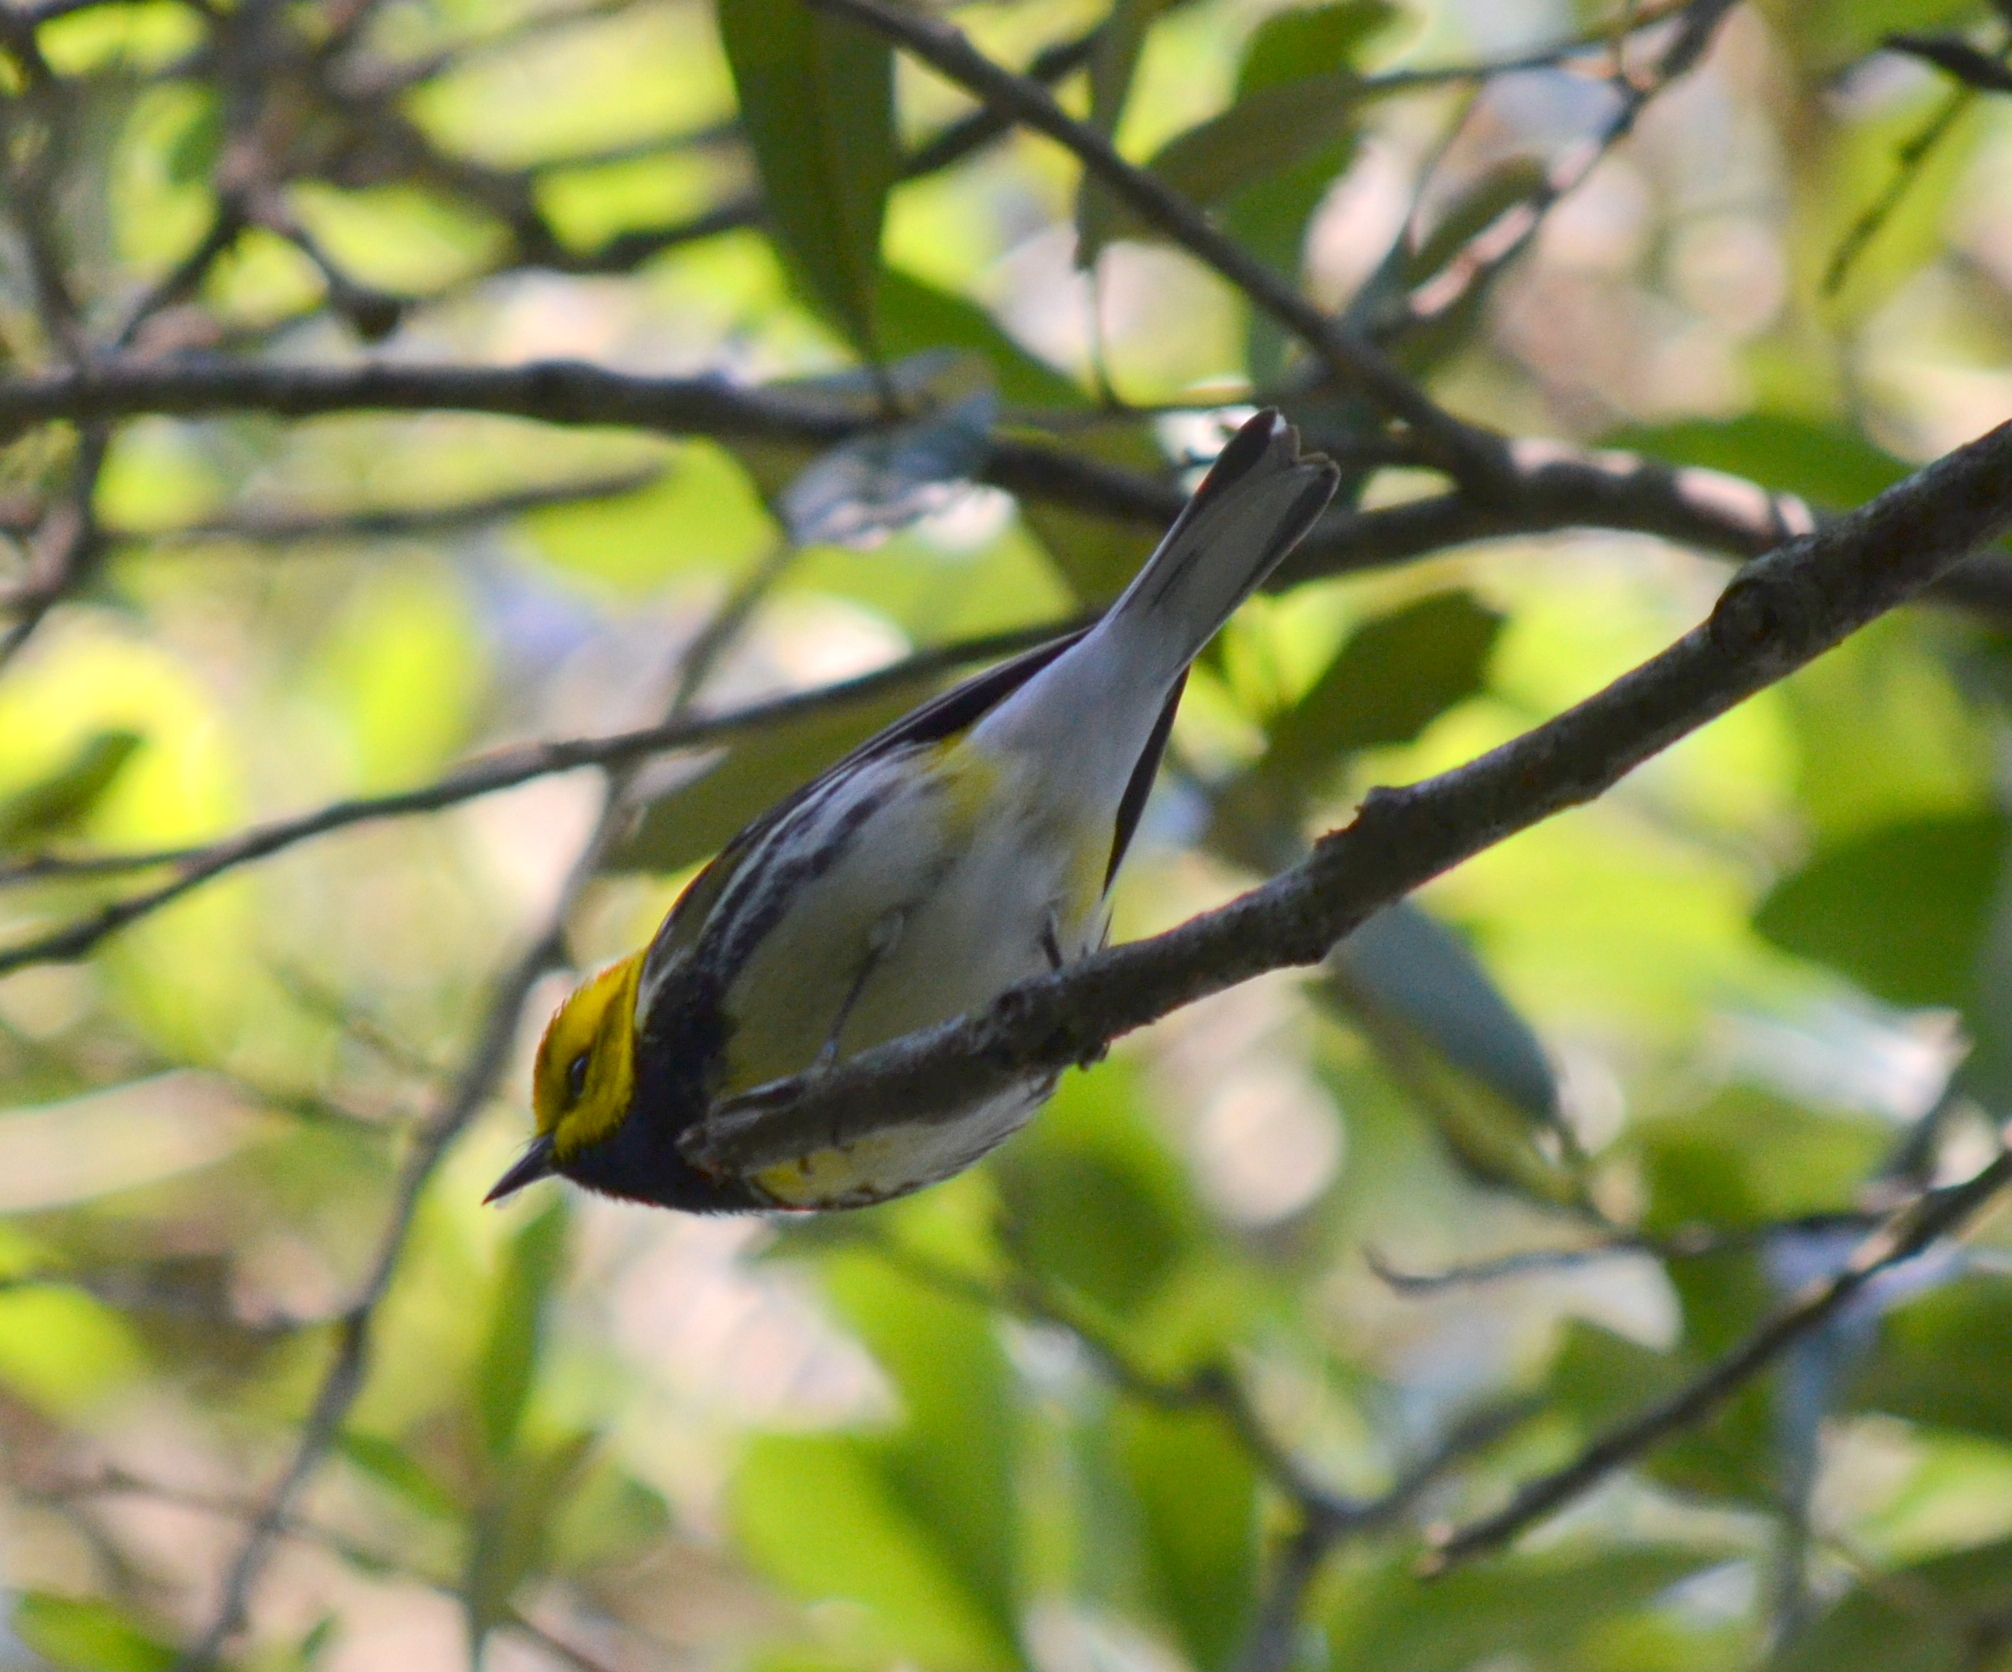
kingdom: Animalia
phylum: Chordata
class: Aves
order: Passeriformes
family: Parulidae
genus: Setophaga
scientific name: Setophaga virens
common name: Black-throated green warbler
